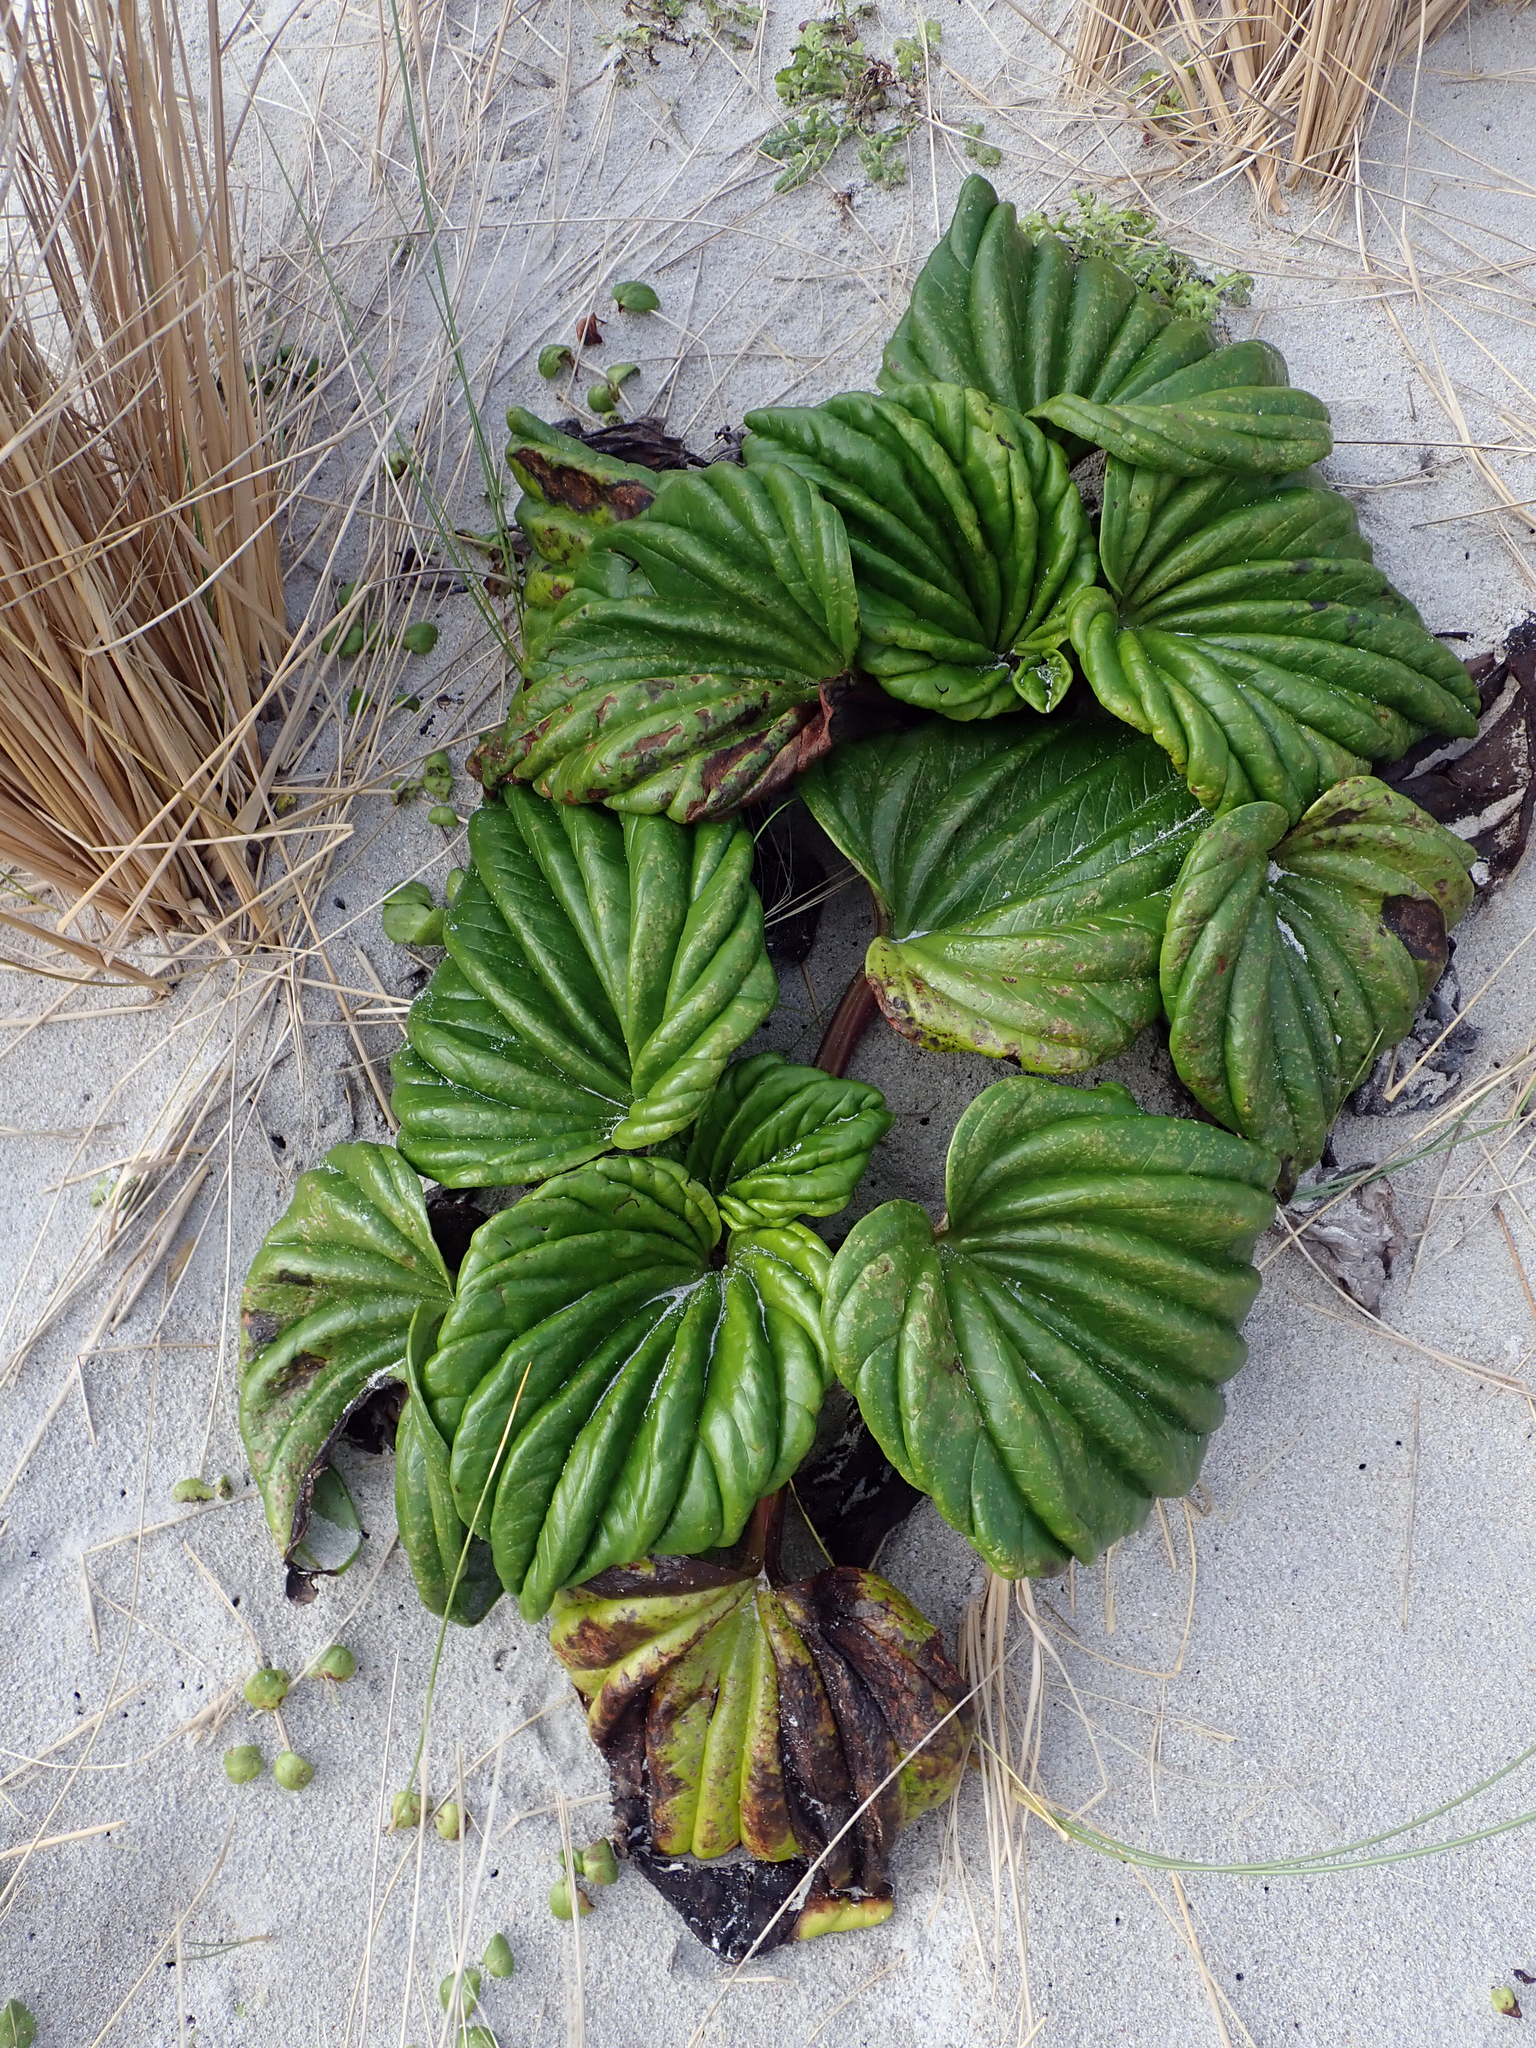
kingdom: Plantae
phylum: Tracheophyta
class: Magnoliopsida
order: Boraginales
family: Boraginaceae
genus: Myosotidium
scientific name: Myosotidium hortensia
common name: Giant forget-me-not
